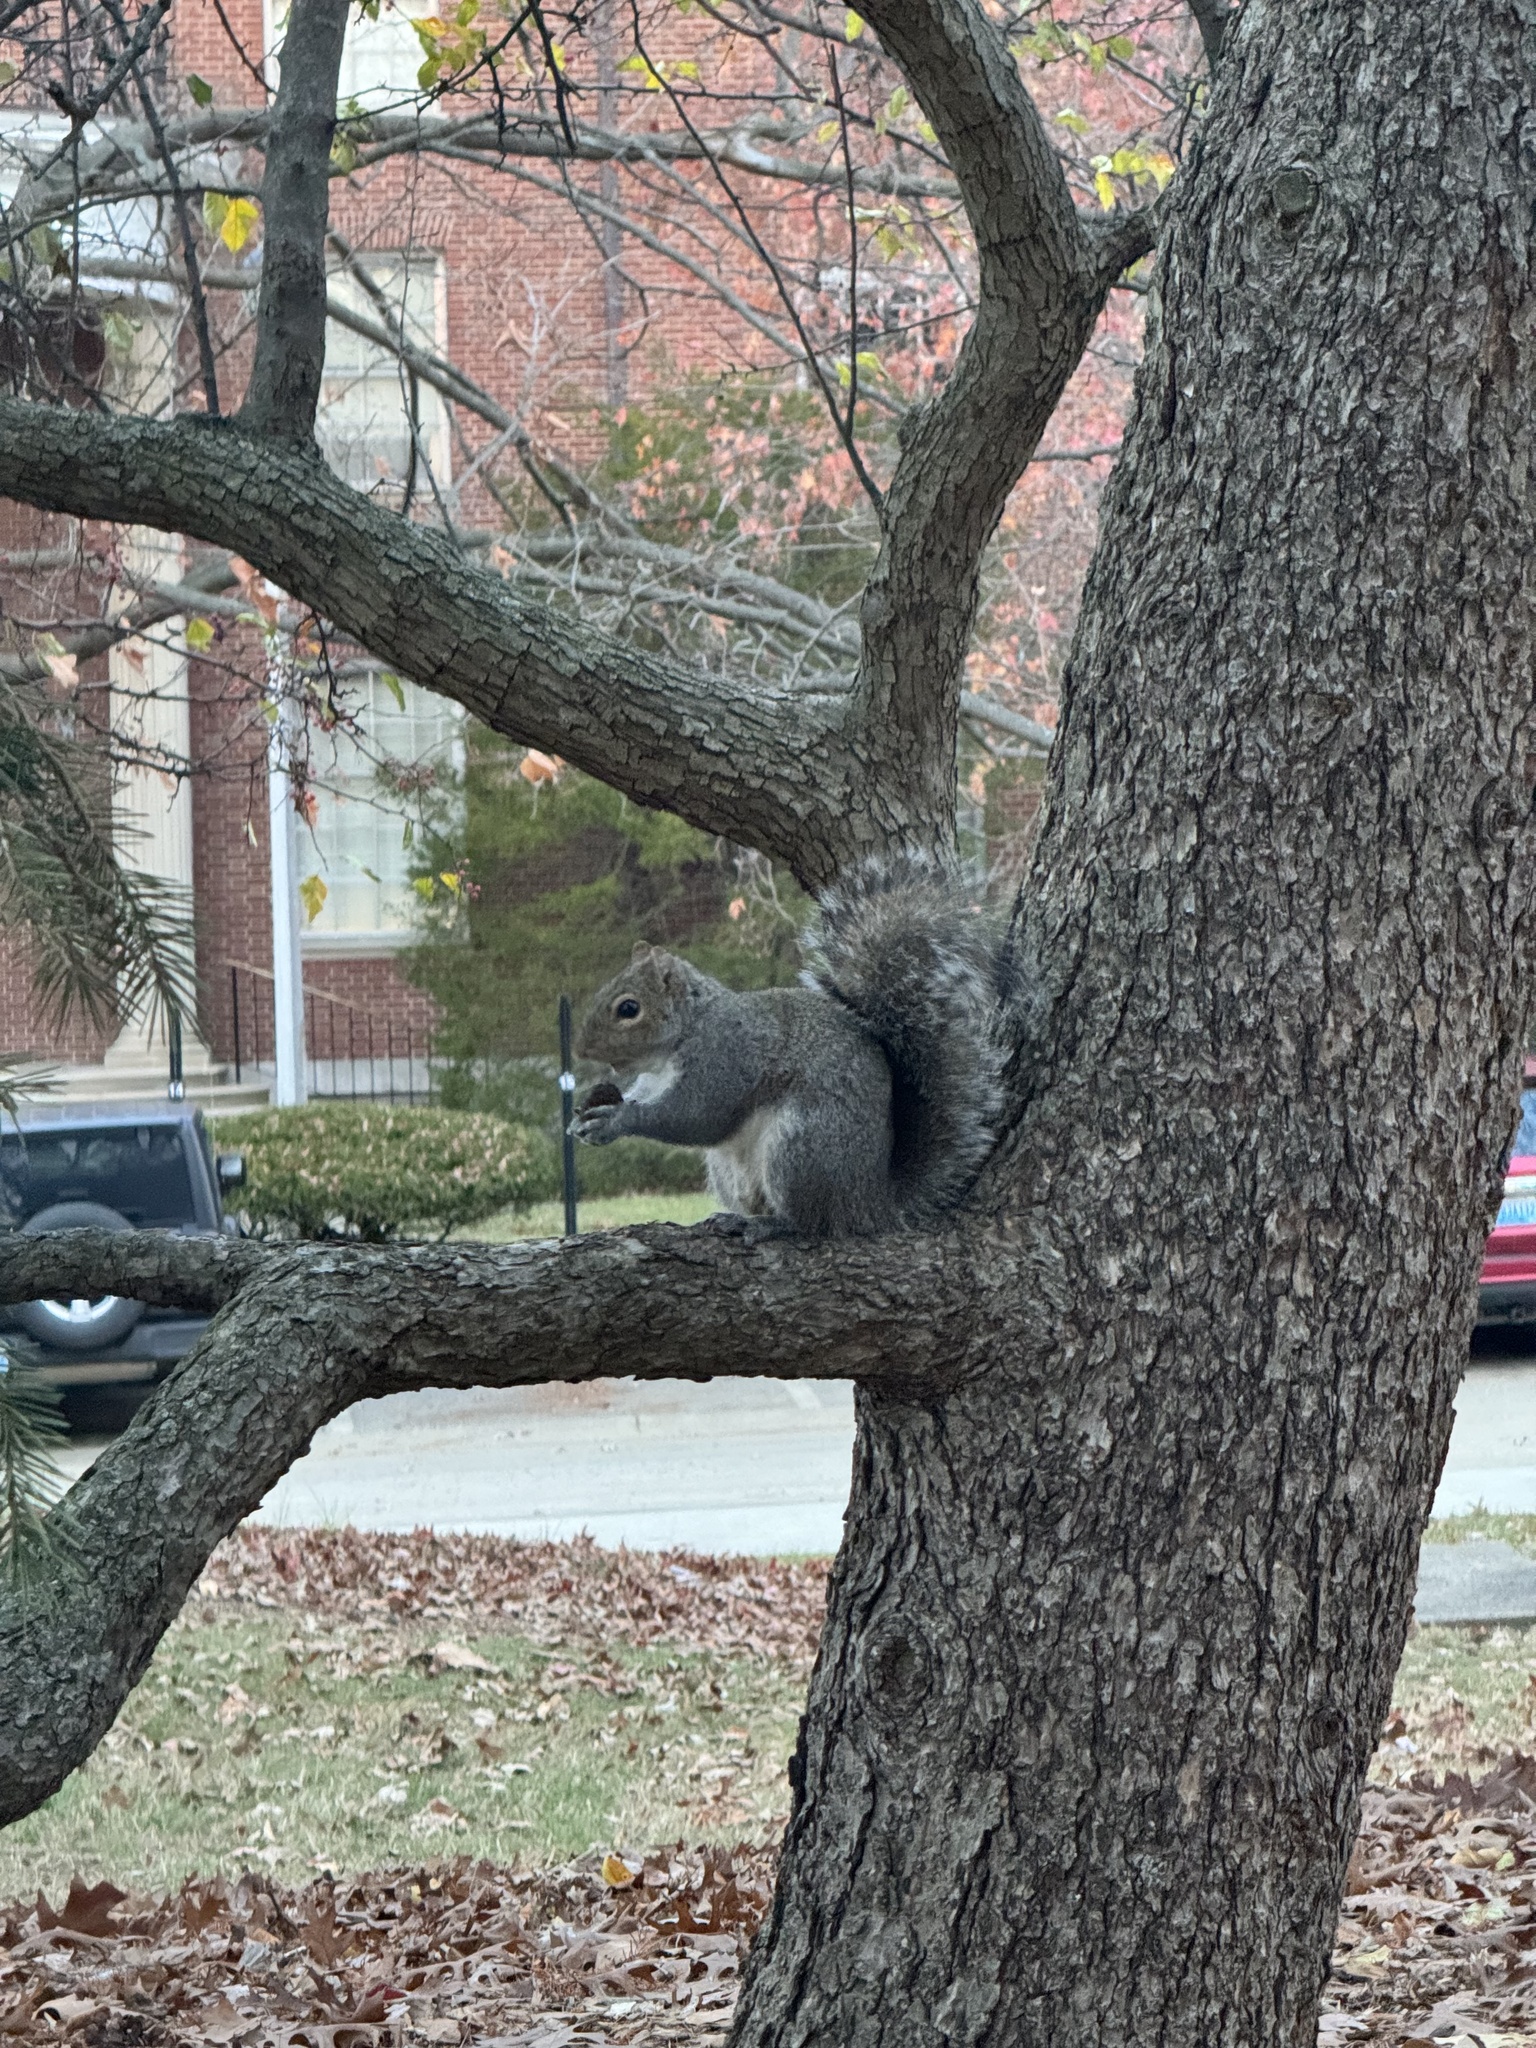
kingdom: Animalia
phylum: Chordata
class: Mammalia
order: Rodentia
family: Sciuridae
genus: Sciurus
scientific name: Sciurus carolinensis
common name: Eastern gray squirrel
